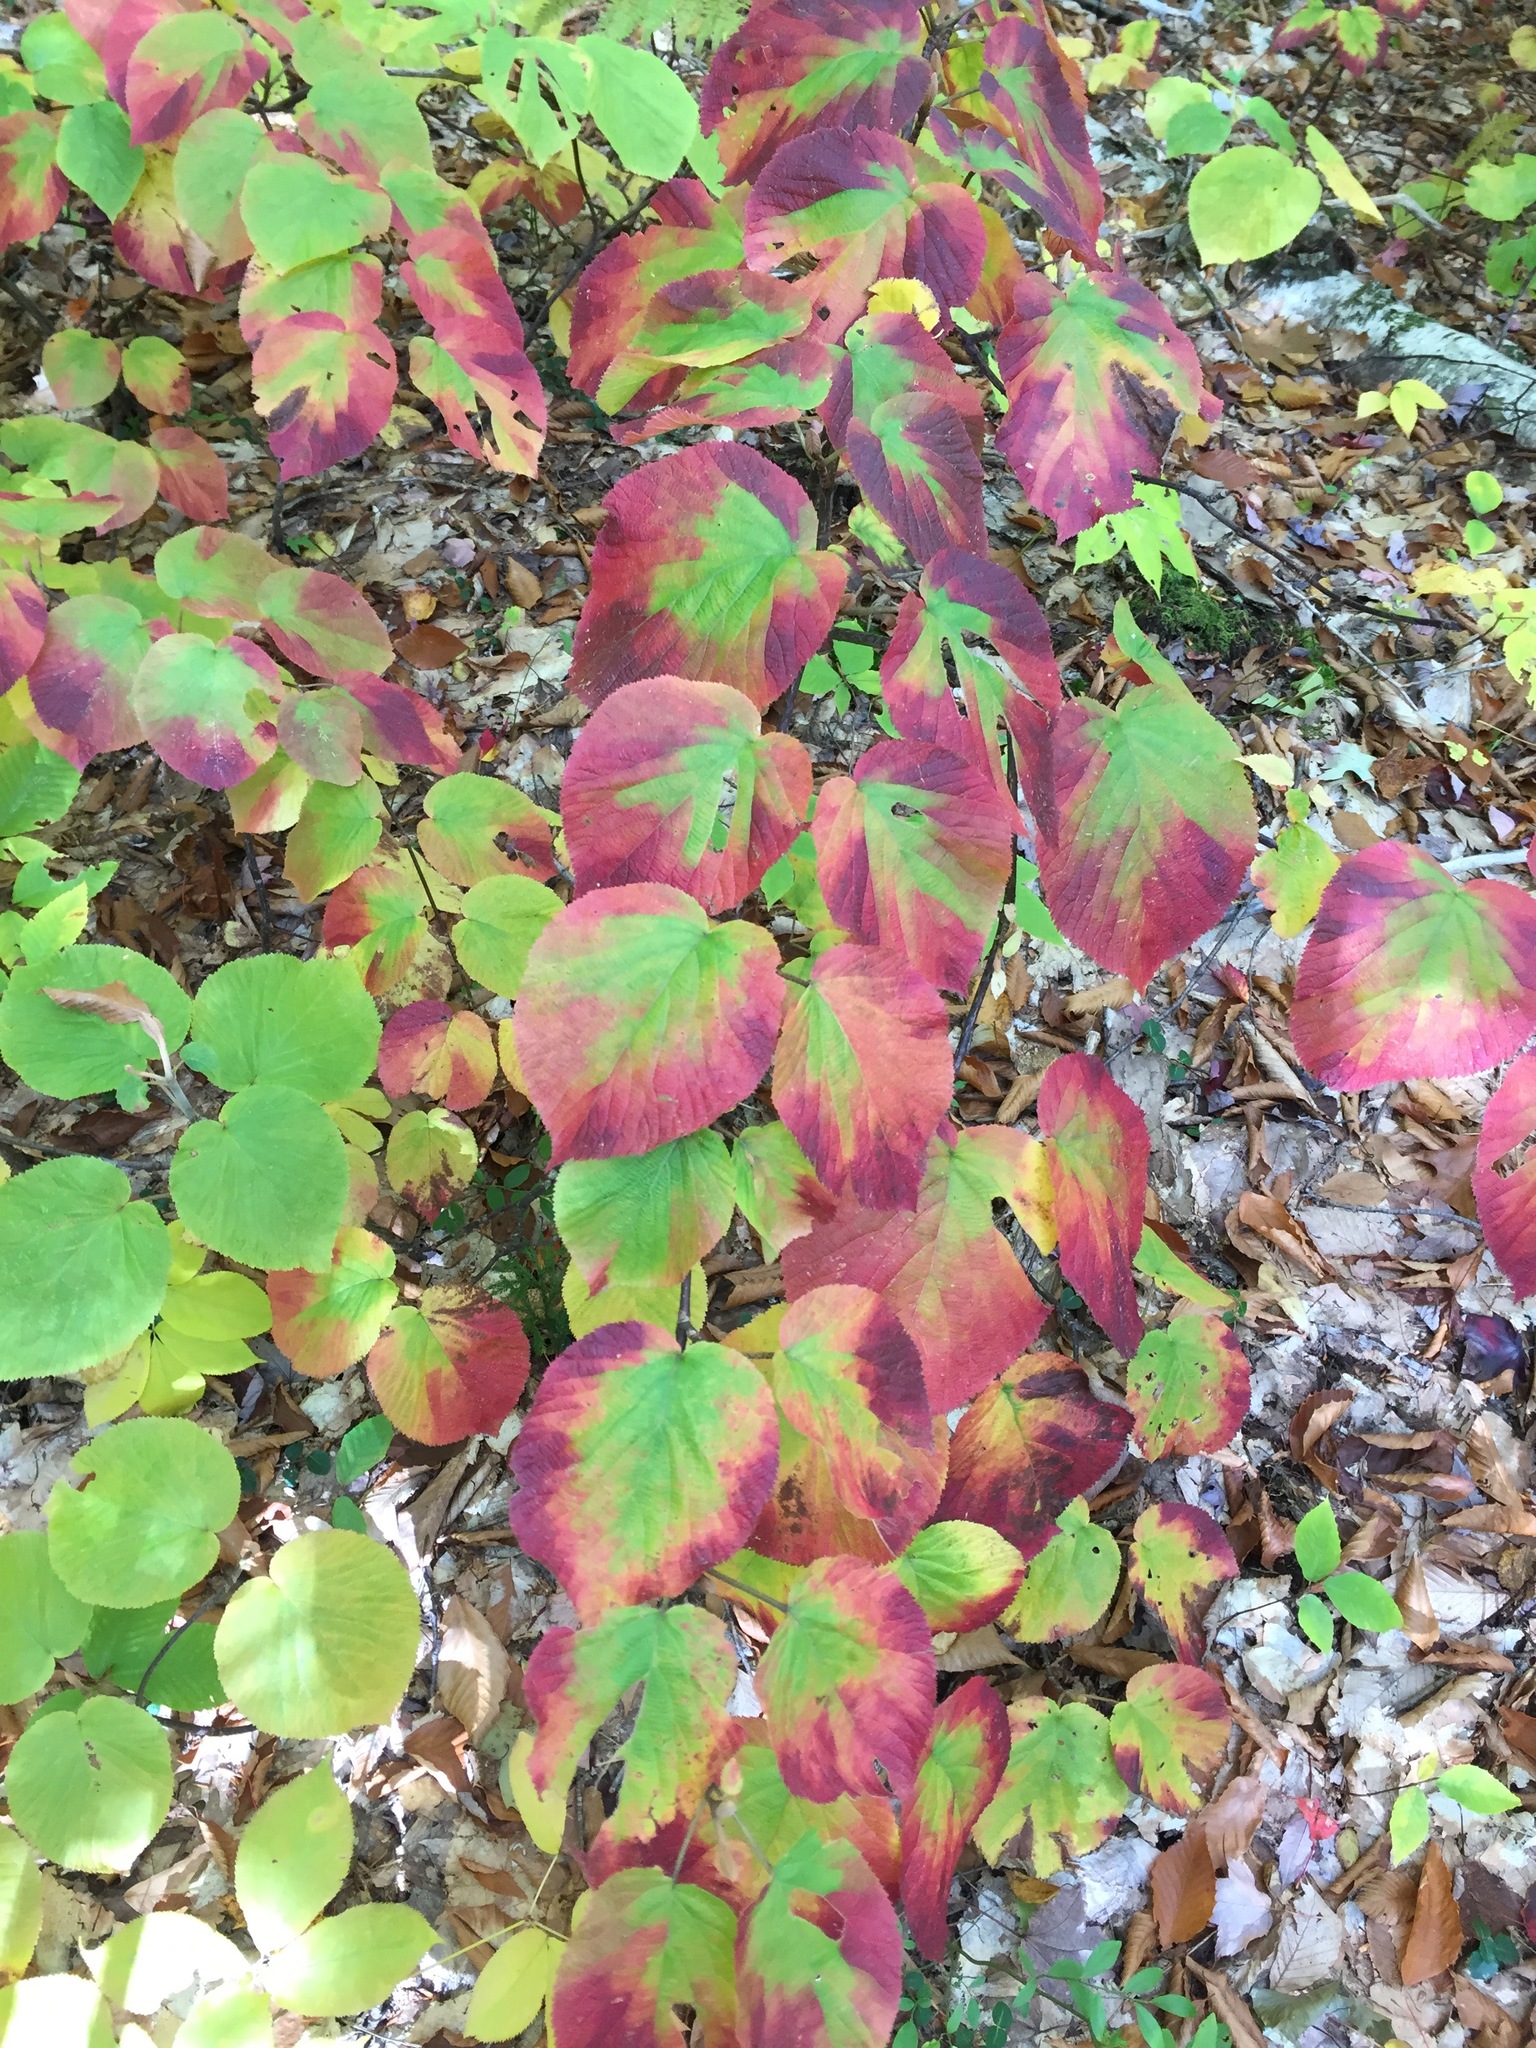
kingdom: Plantae
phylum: Tracheophyta
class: Magnoliopsida
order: Dipsacales
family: Viburnaceae
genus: Viburnum
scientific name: Viburnum lantanoides
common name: Hobblebush
